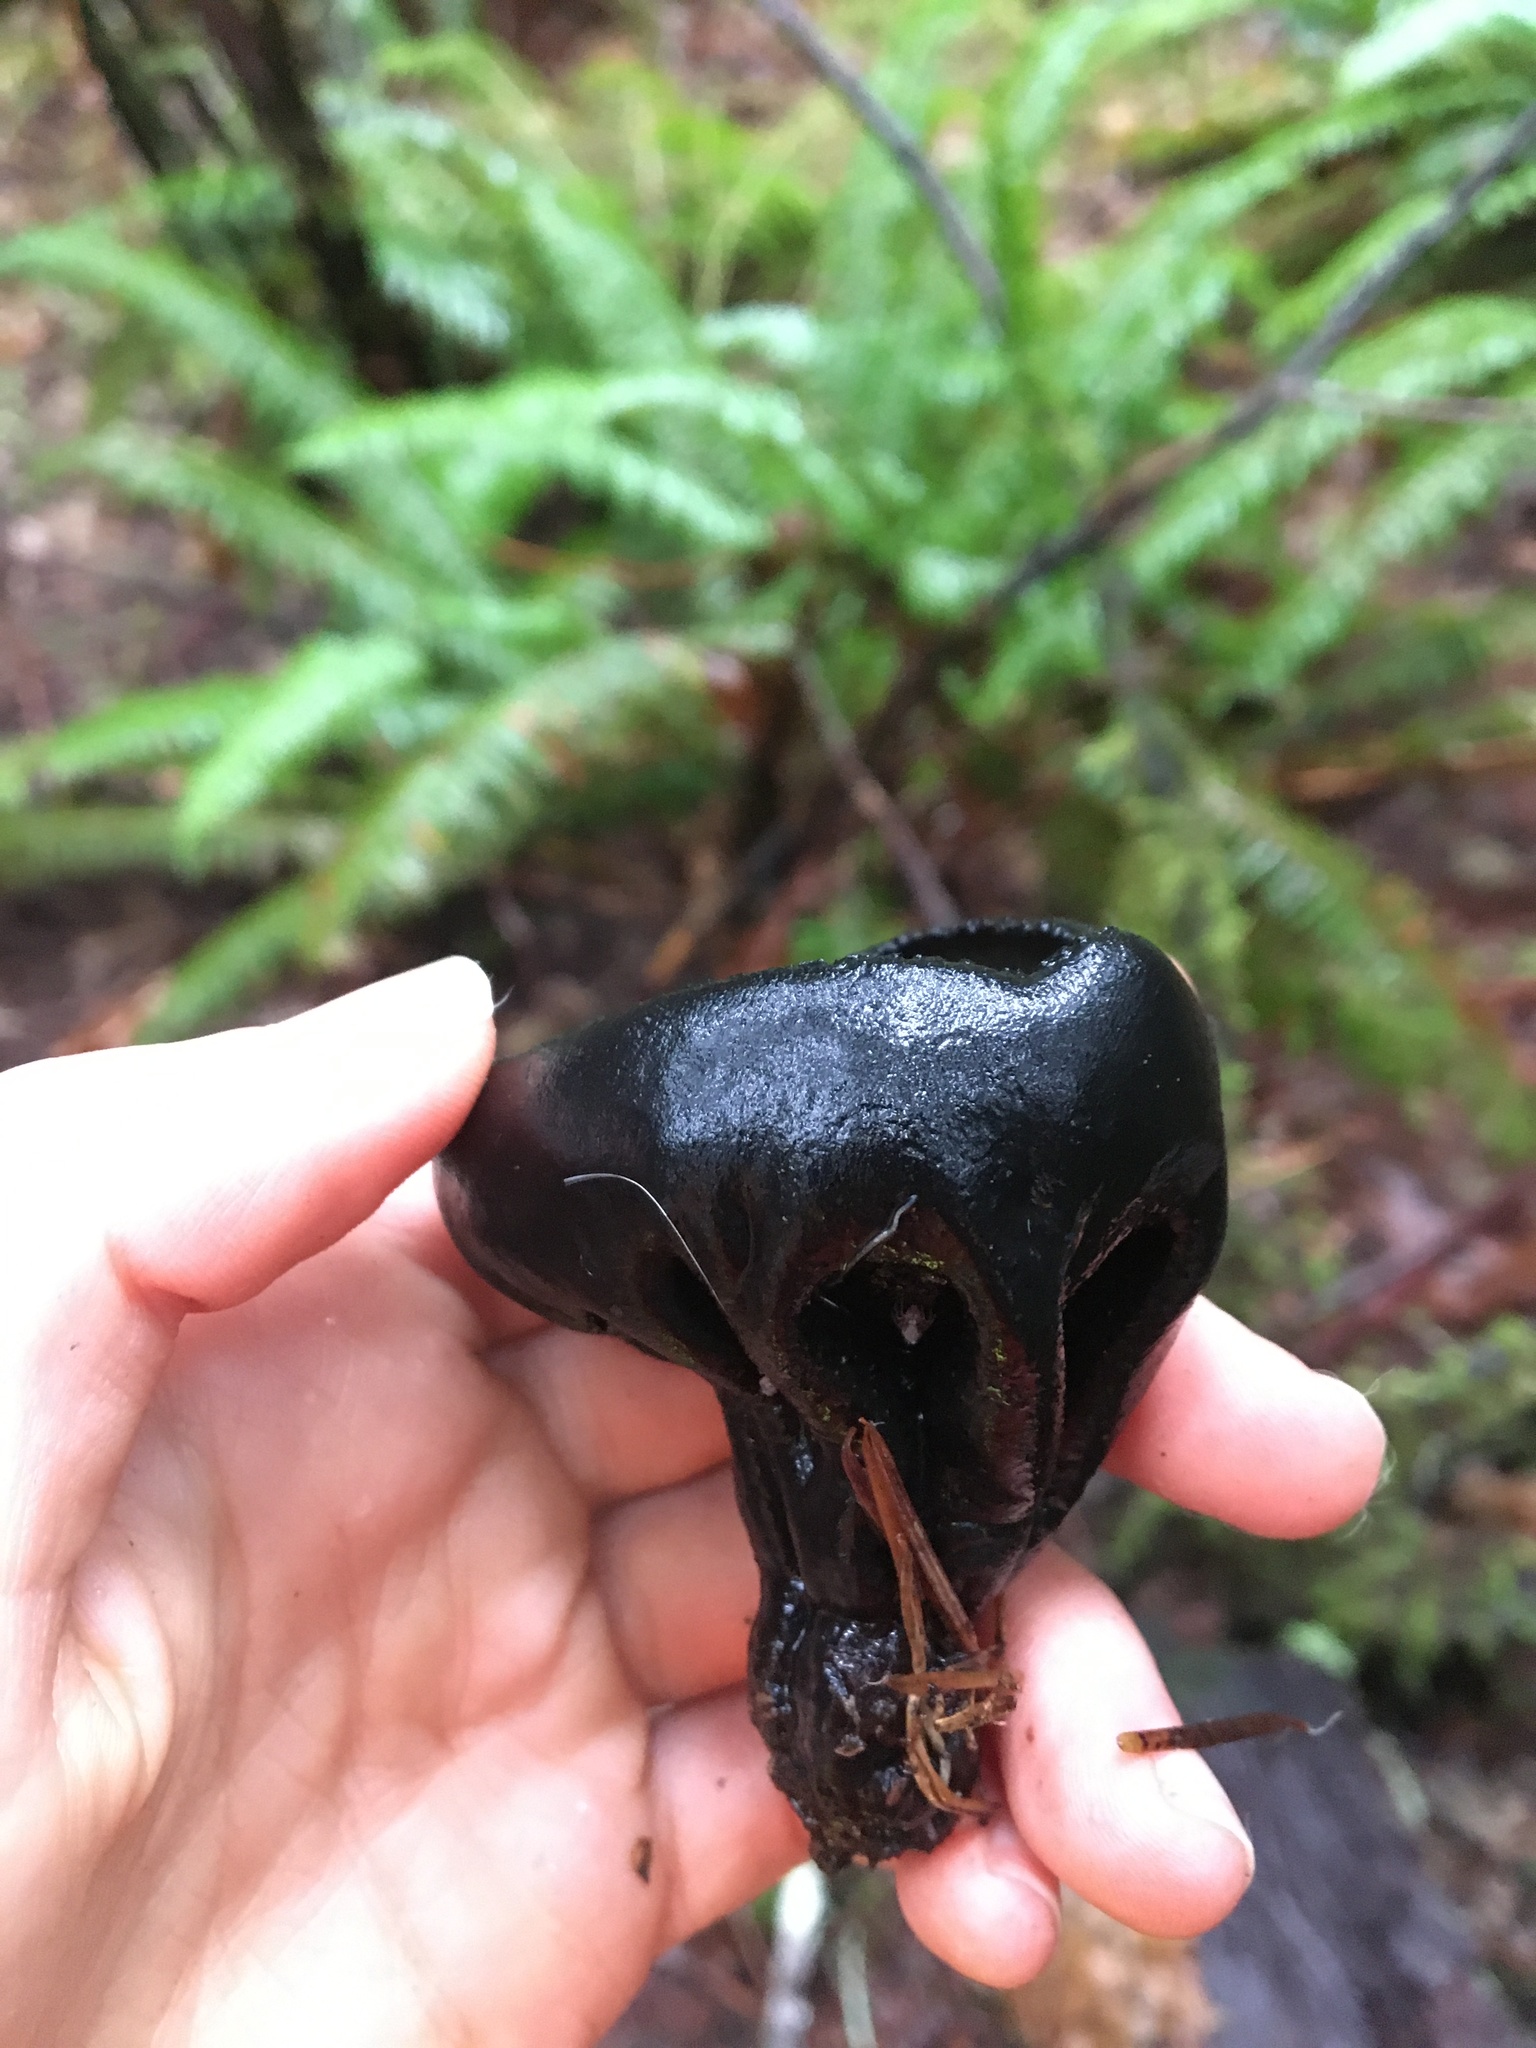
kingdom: Fungi
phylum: Ascomycota
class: Pezizomycetes
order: Pezizales
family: Sarcosomataceae
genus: Urnula
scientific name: Urnula padeniana
